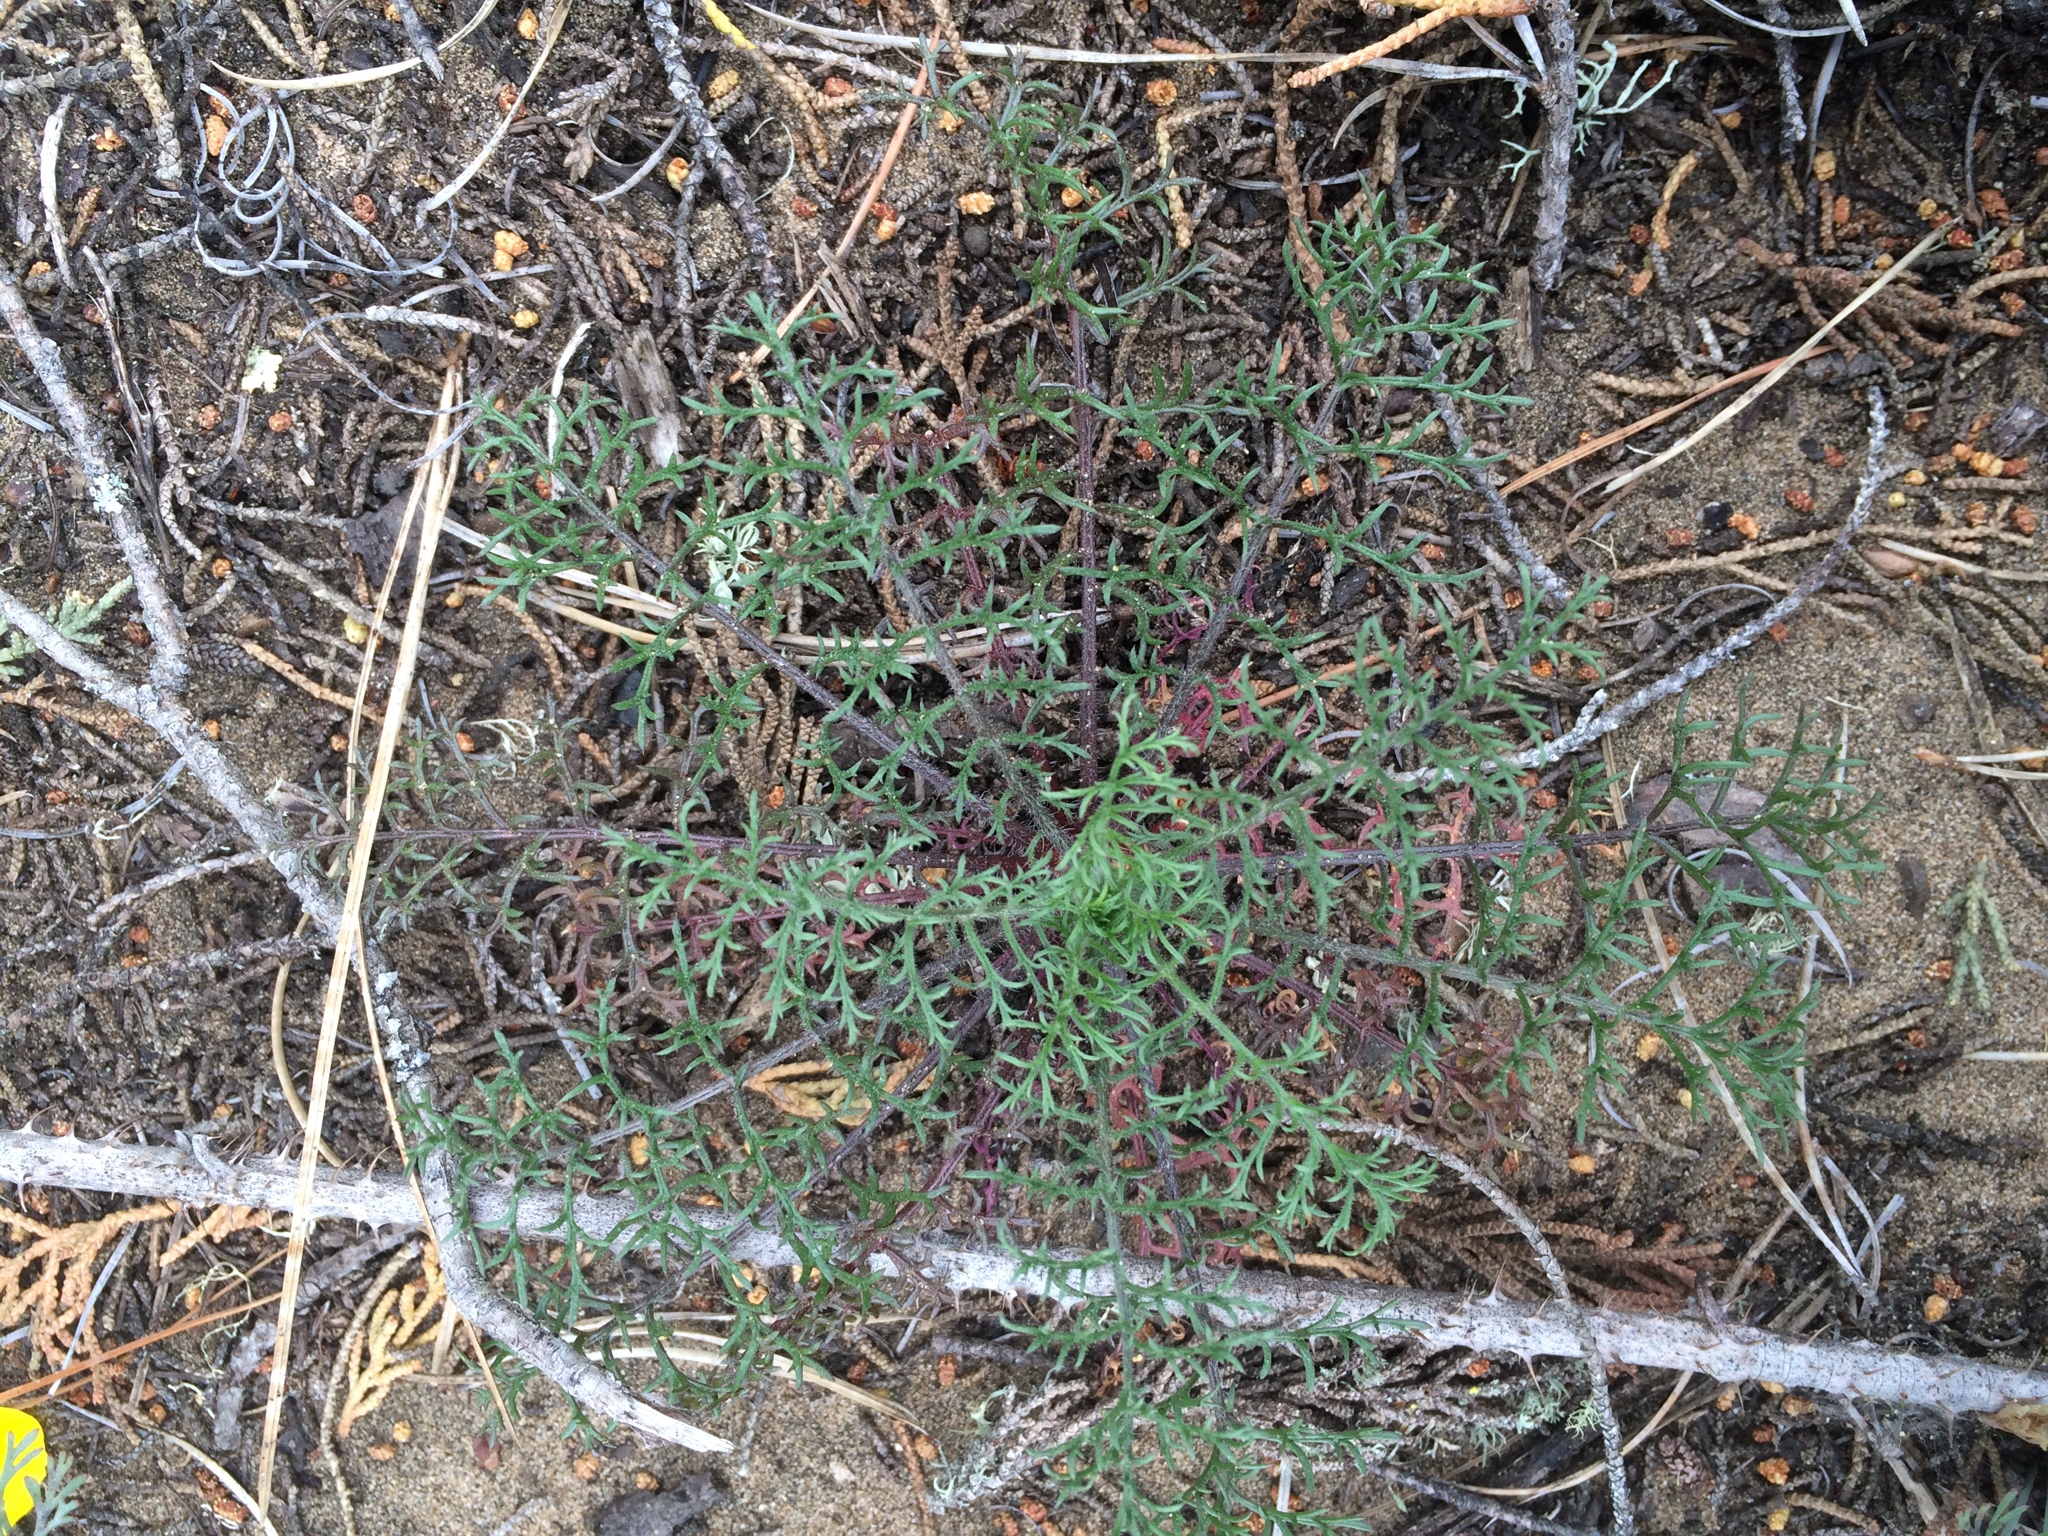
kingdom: Plantae
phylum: Tracheophyta
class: Magnoliopsida
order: Ericales
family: Polemoniaceae
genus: Gilia
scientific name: Gilia capitata
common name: Bluehead gilia
